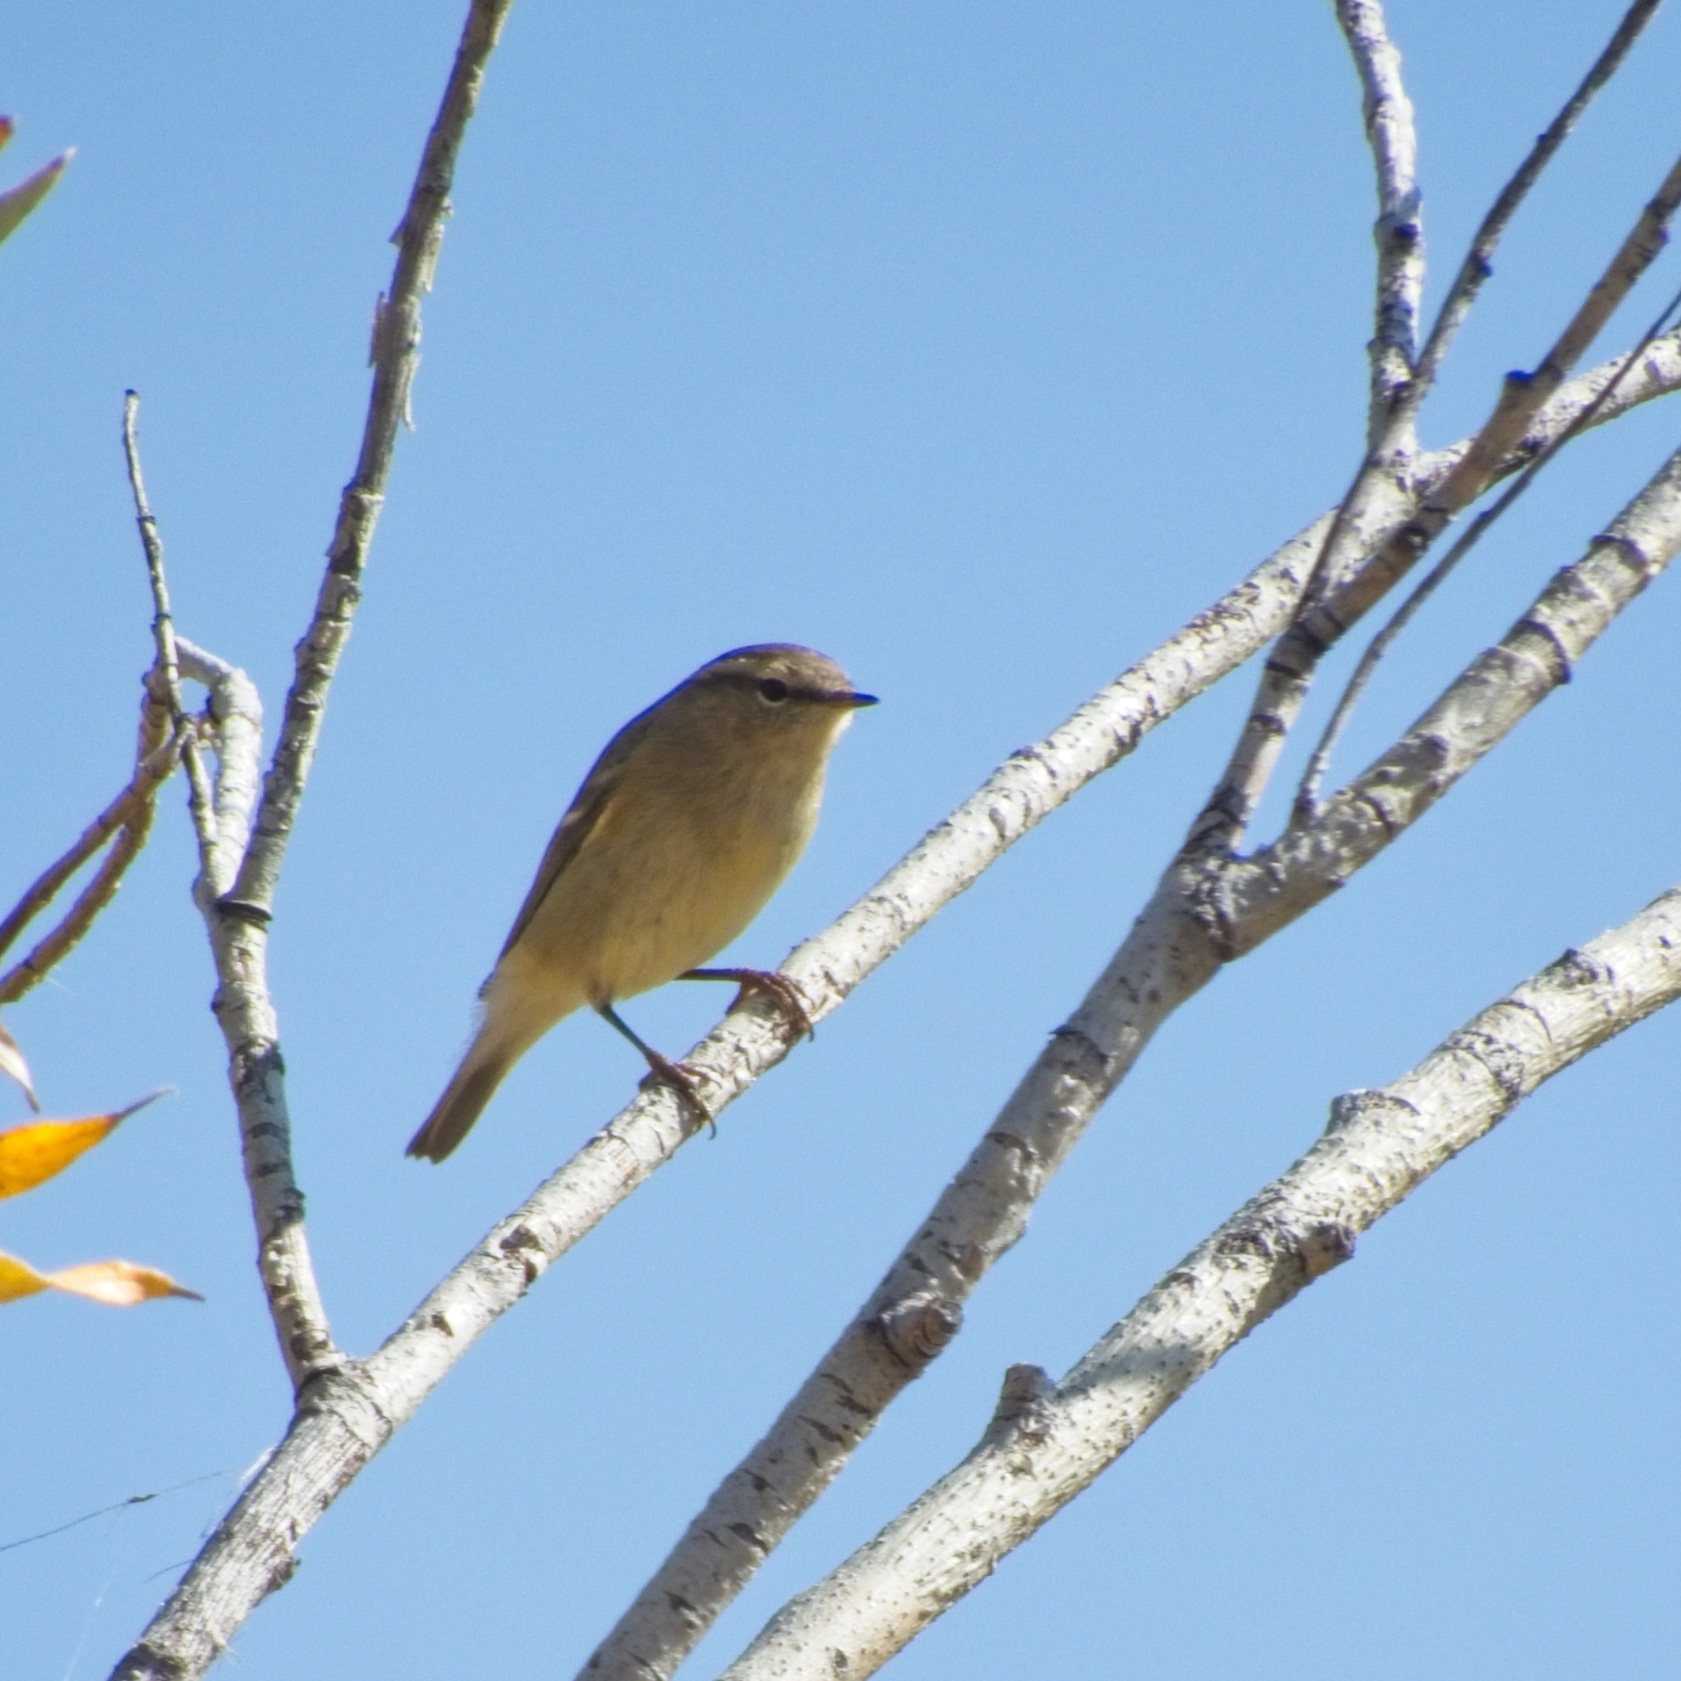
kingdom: Animalia
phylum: Chordata
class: Aves
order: Passeriformes
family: Phylloscopidae
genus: Phylloscopus
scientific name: Phylloscopus humei
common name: Hume's leaf warbler
